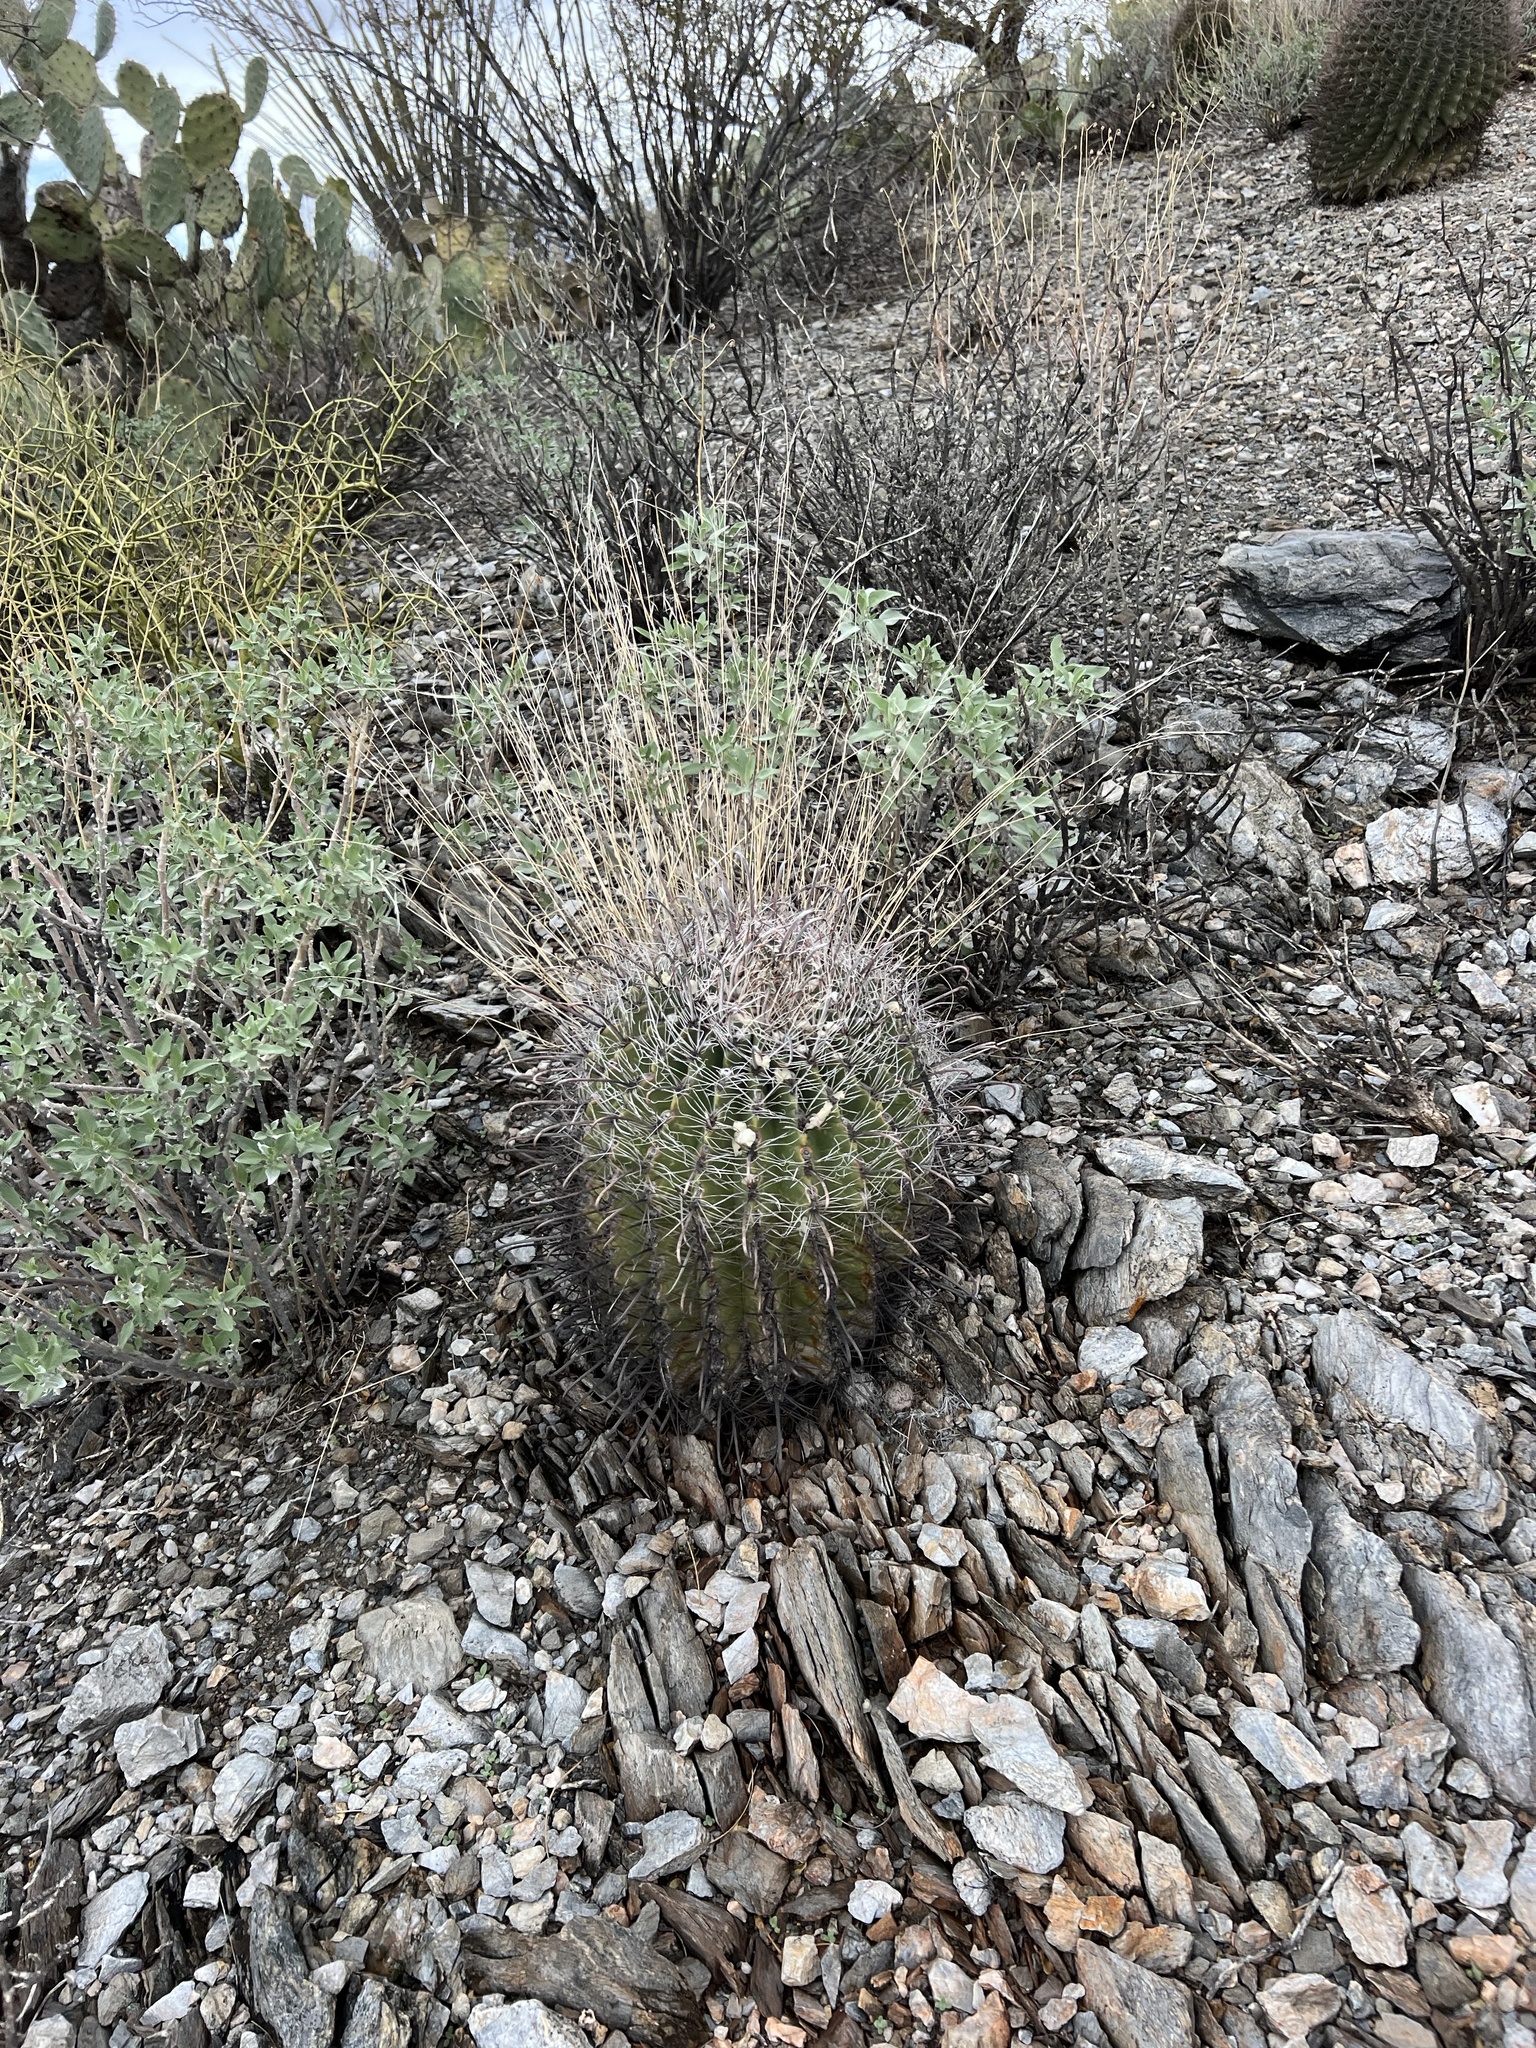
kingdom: Plantae
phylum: Tracheophyta
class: Magnoliopsida
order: Caryophyllales
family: Cactaceae
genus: Ferocactus
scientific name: Ferocactus wislizeni
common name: Candy barrel cactus
